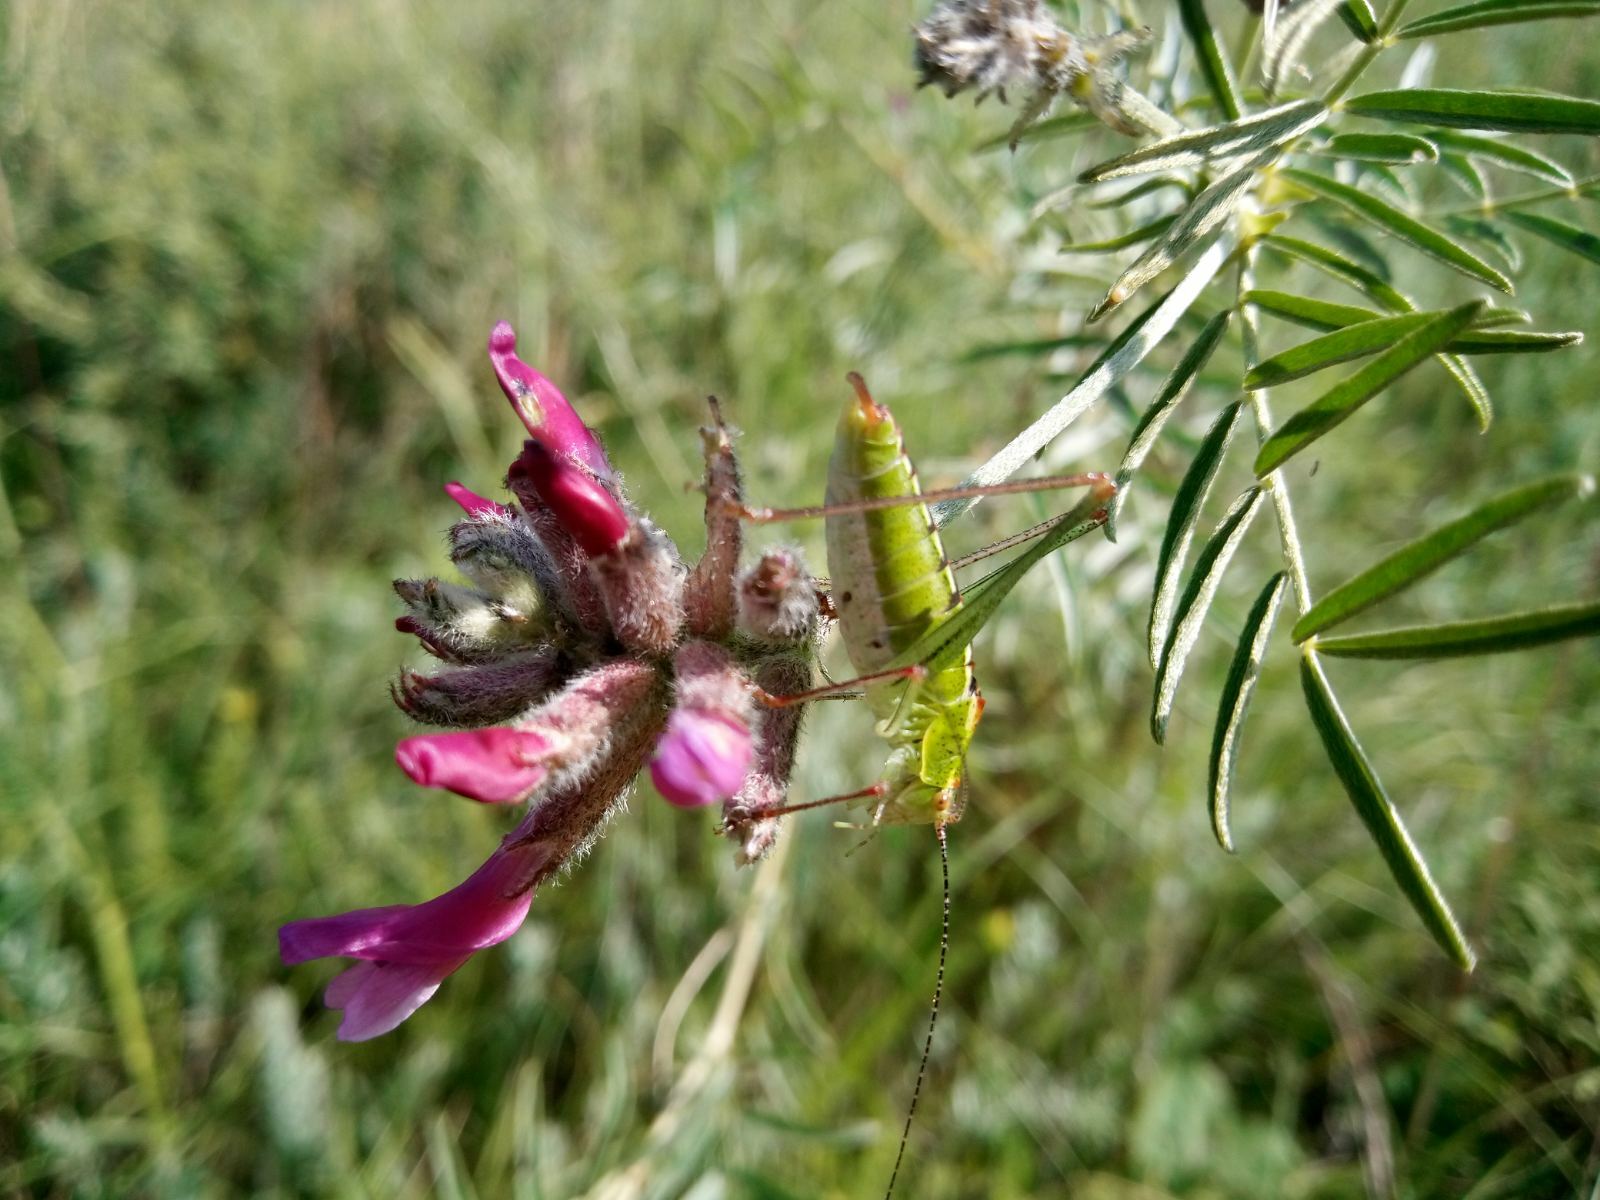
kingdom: Plantae
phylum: Tracheophyta
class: Magnoliopsida
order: Fabales
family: Fabaceae
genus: Astragalus
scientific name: Astragalus cornutus
